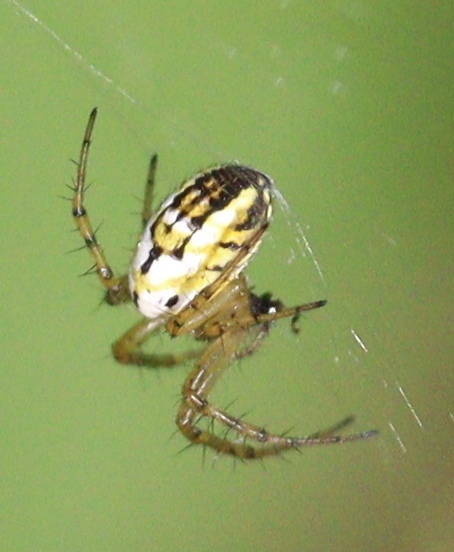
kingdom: Animalia
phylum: Arthropoda
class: Arachnida
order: Araneae
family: Araneidae
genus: Mangora
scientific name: Mangora acalypha
